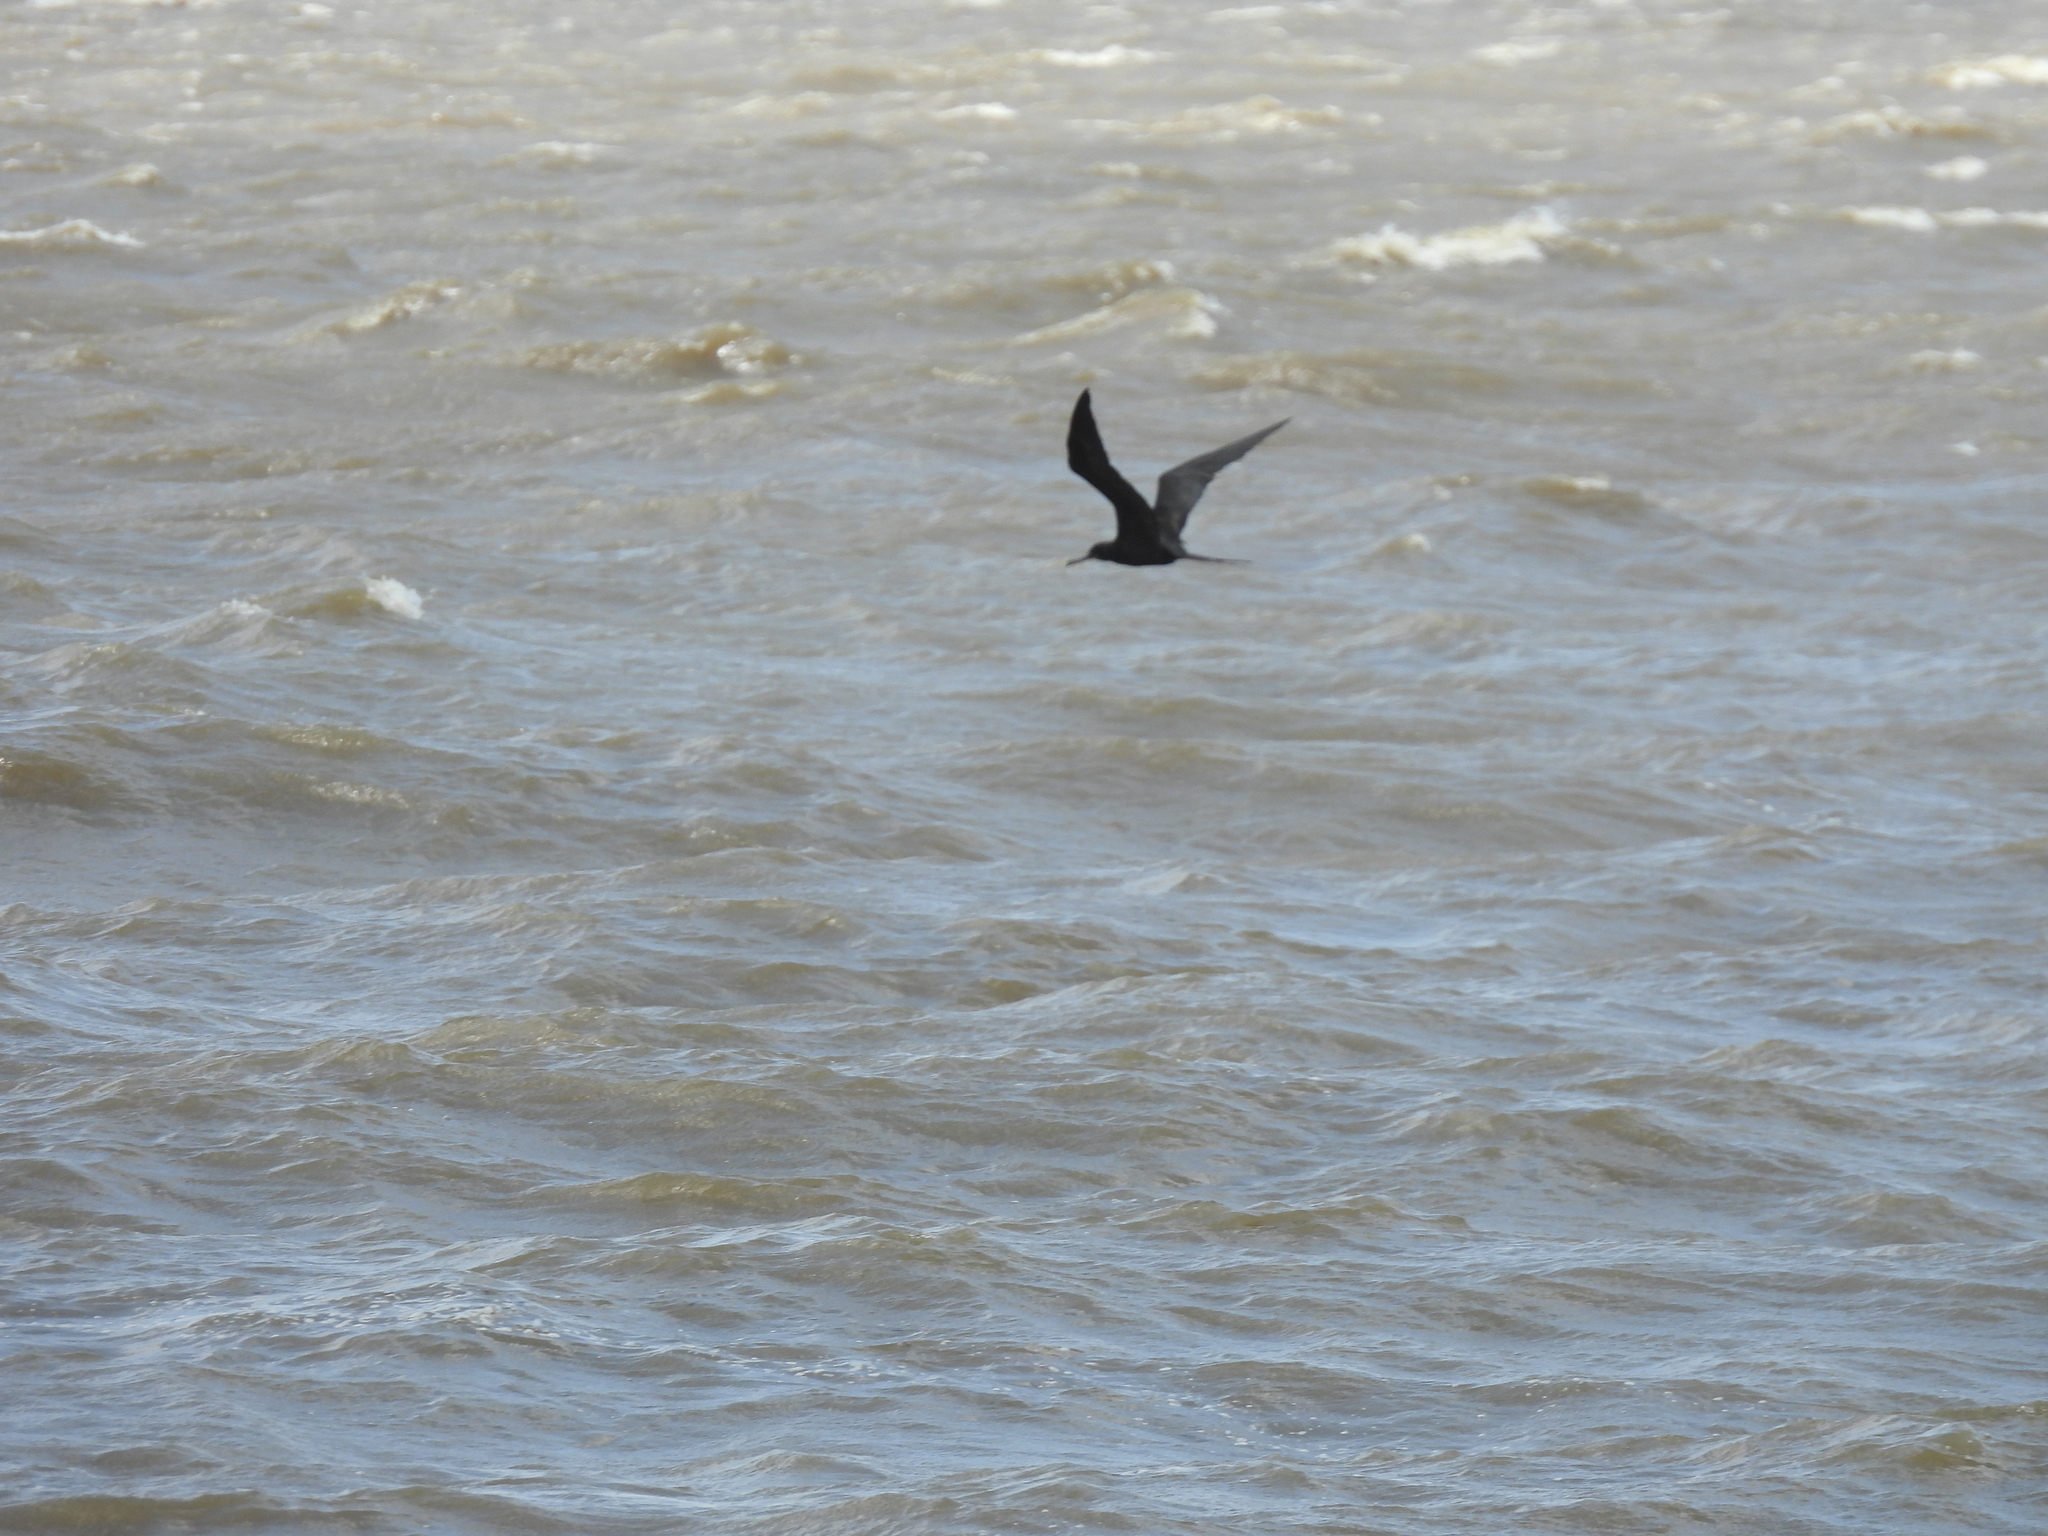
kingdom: Animalia
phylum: Chordata
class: Aves
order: Suliformes
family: Fregatidae
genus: Fregata
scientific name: Fregata magnificens
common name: Magnificent frigatebird
